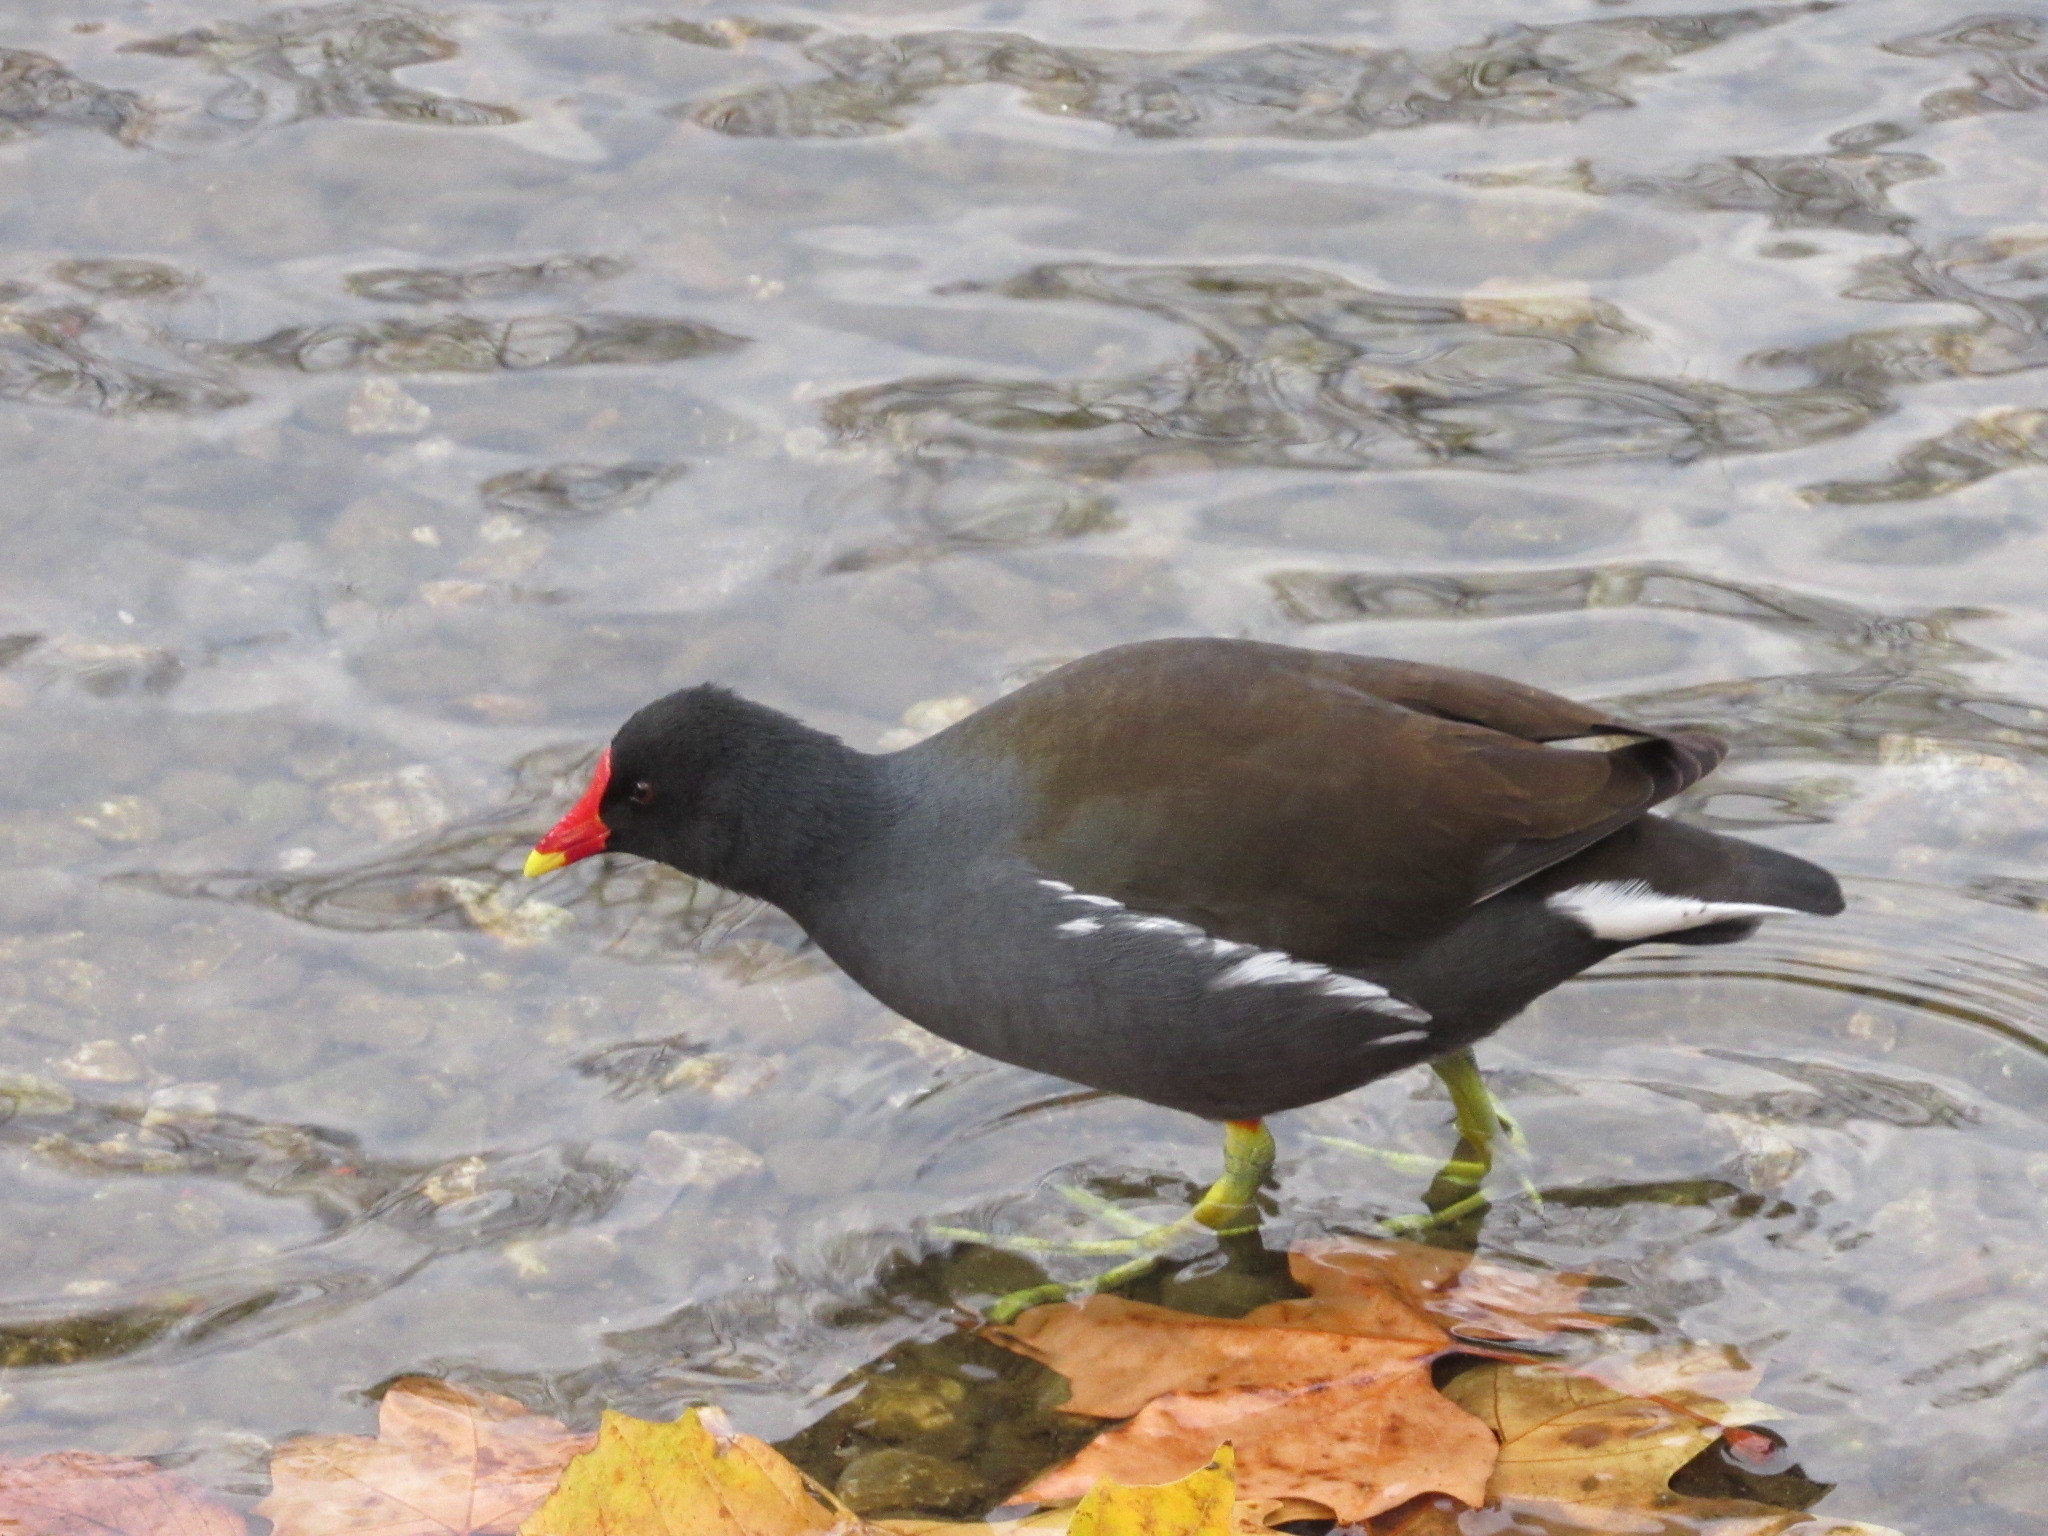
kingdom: Animalia
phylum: Chordata
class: Aves
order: Gruiformes
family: Rallidae
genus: Gallinula
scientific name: Gallinula chloropus
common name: Common moorhen
